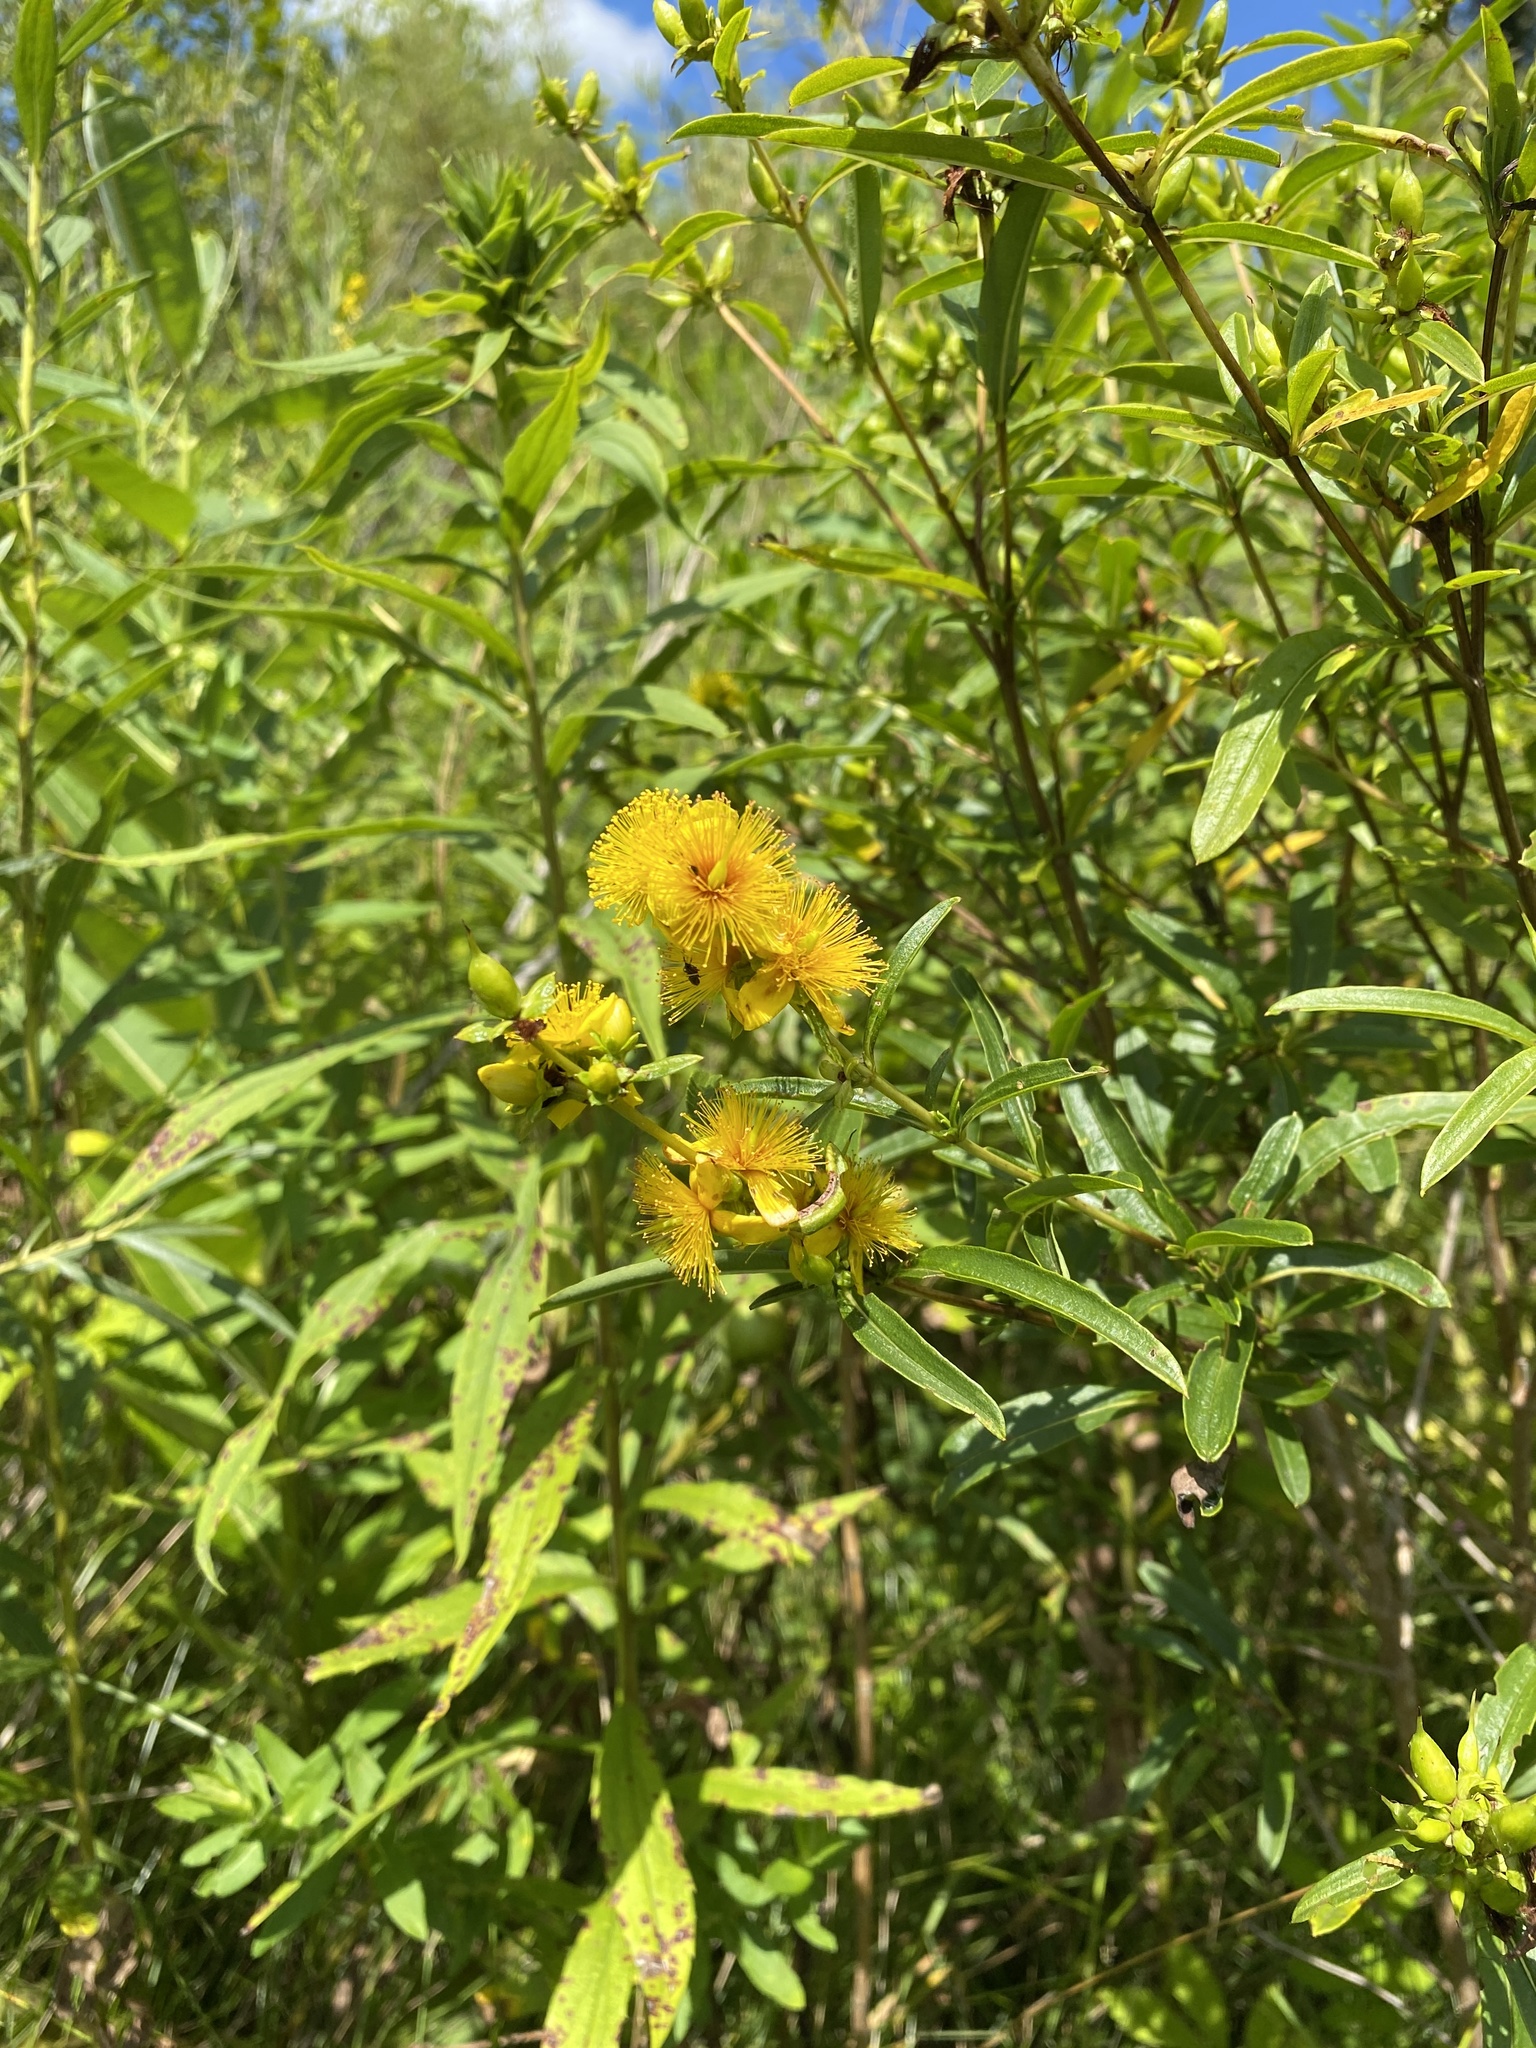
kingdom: Plantae
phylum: Tracheophyta
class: Magnoliopsida
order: Malpighiales
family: Hypericaceae
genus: Hypericum
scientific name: Hypericum prolificum
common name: Shrubby st. john's-wort
